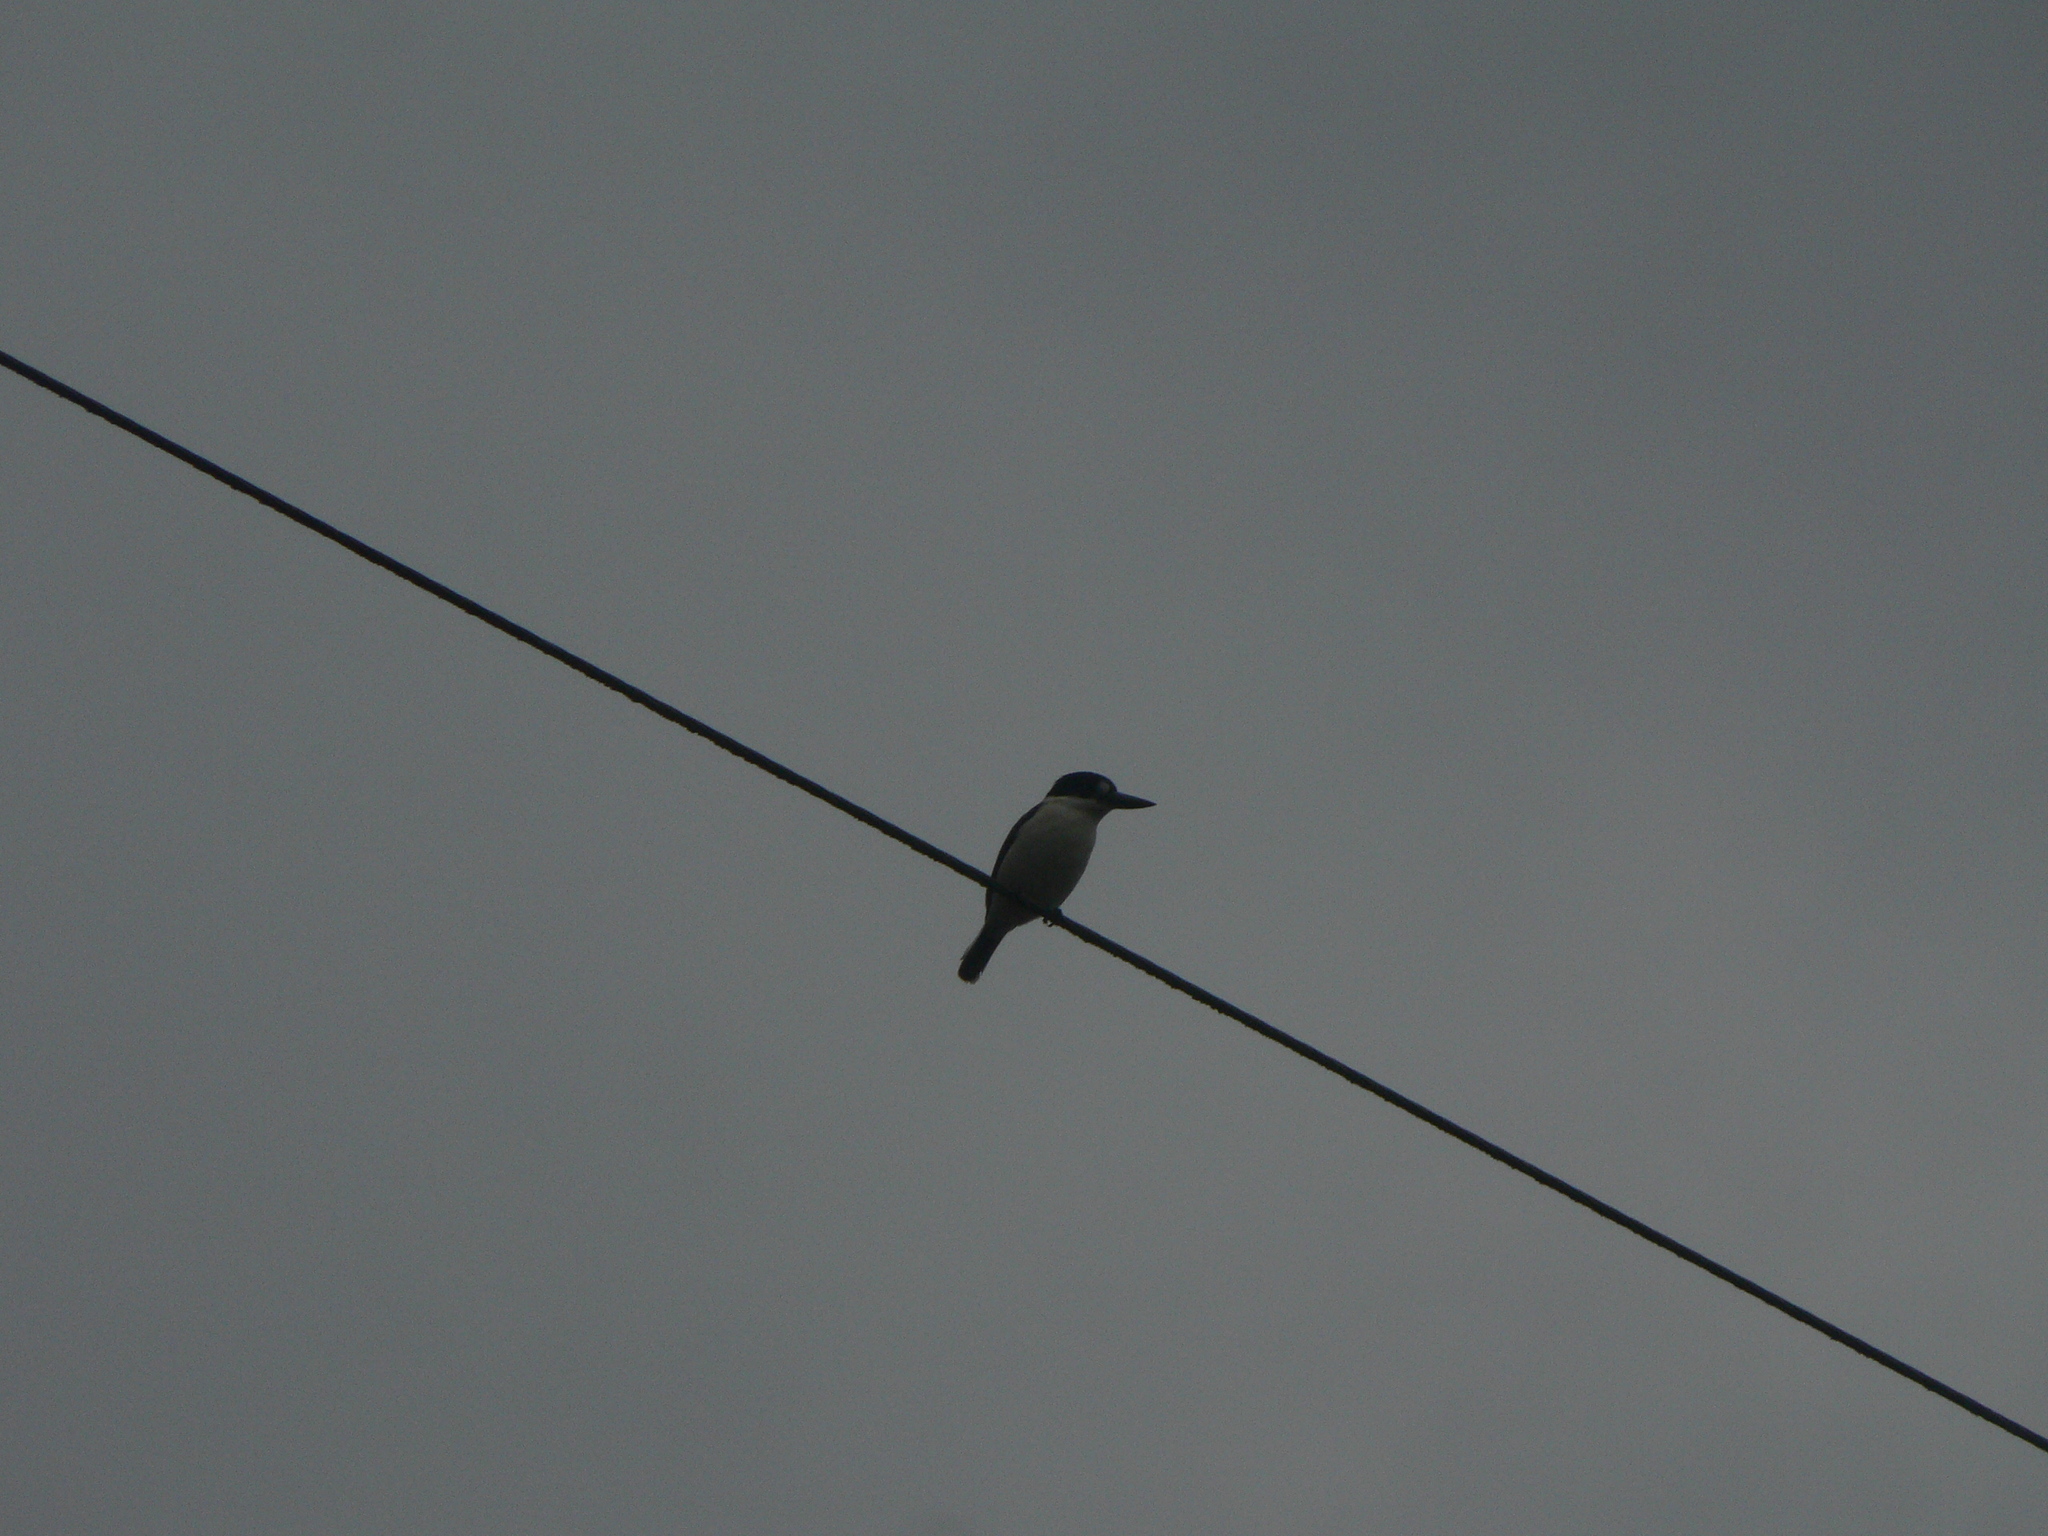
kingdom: Animalia
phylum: Chordata
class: Aves
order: Coraciiformes
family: Alcedinidae
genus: Todiramphus
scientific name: Todiramphus macleayii
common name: Forest kingfisher
